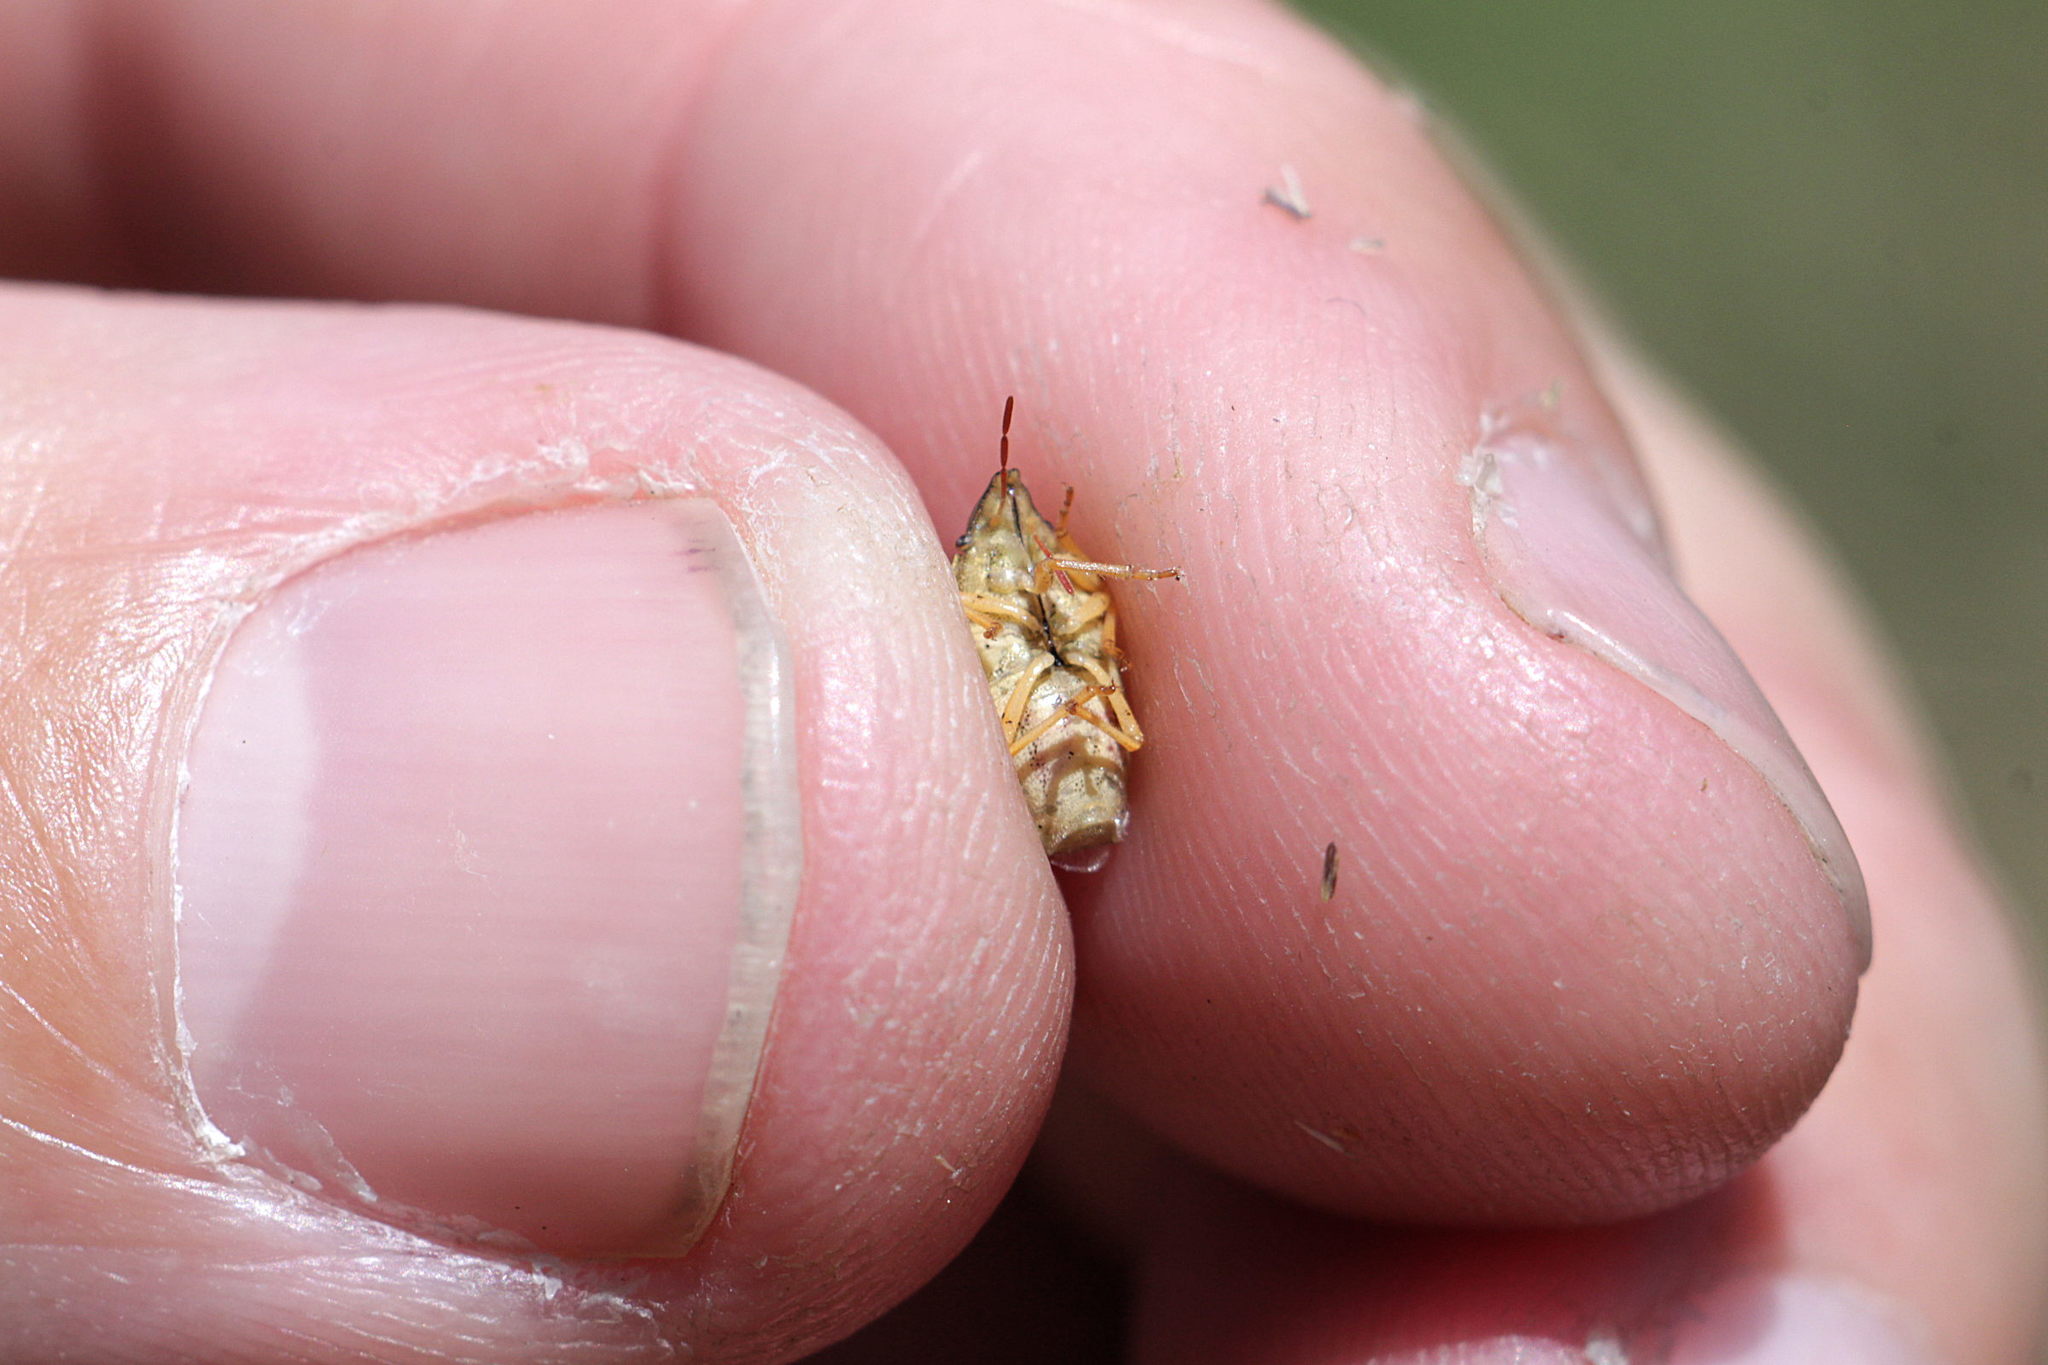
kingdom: Animalia
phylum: Arthropoda
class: Insecta
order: Hemiptera
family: Pentatomidae
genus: Aelia
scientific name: Aelia acuminata
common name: Bishop's mitre
